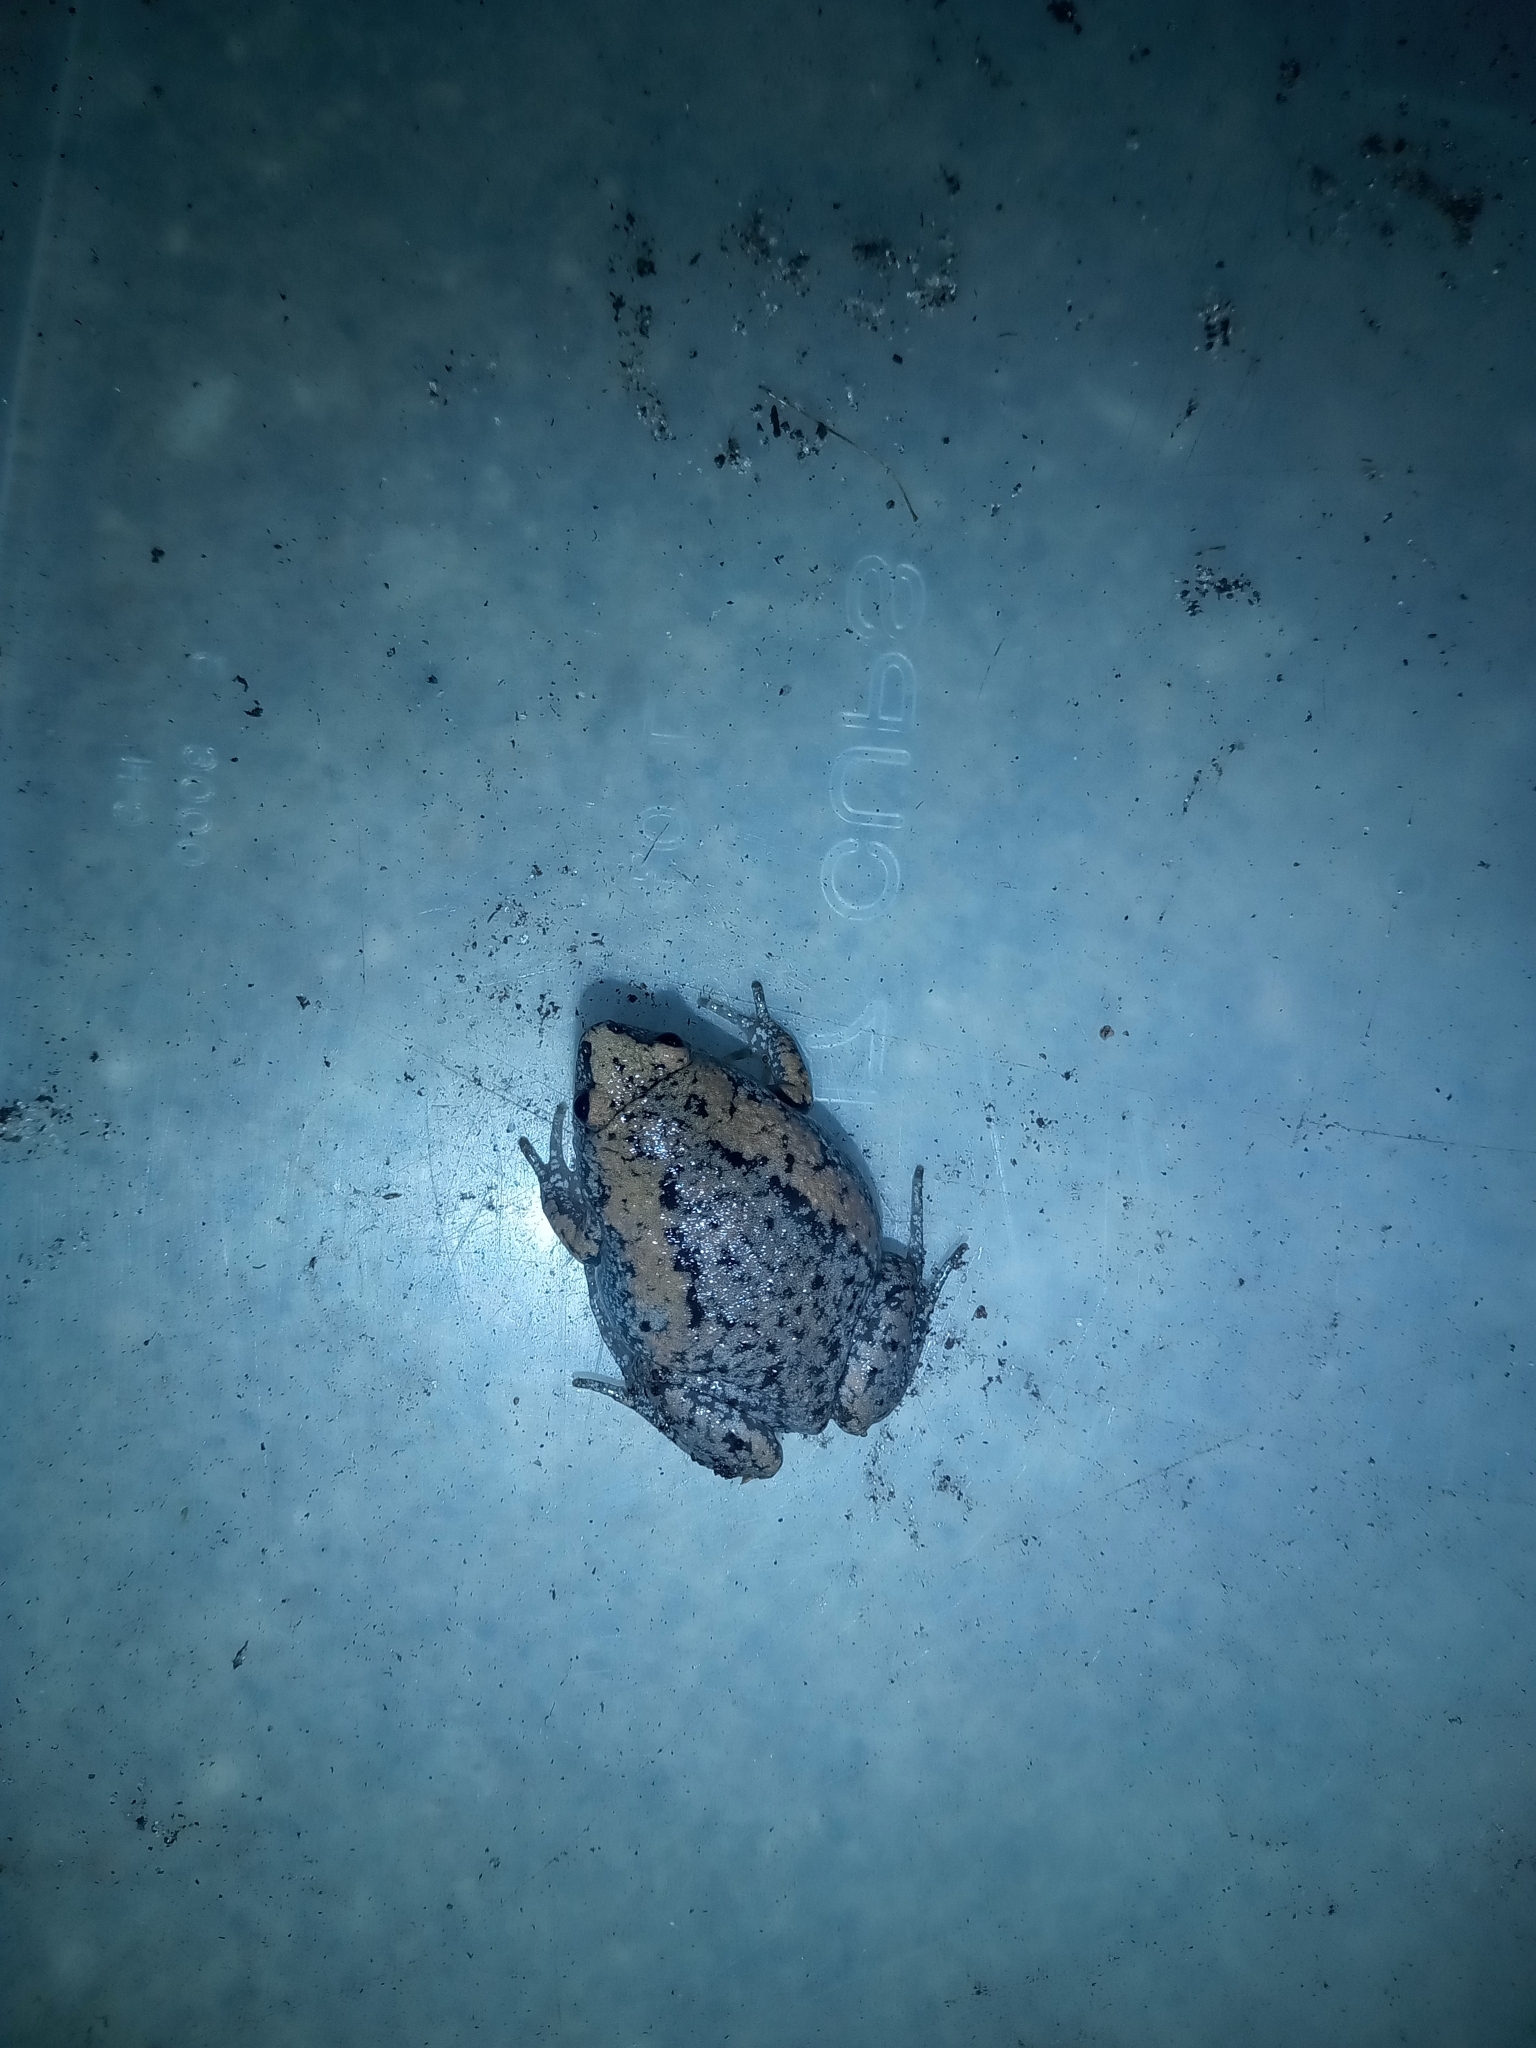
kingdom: Animalia
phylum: Chordata
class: Amphibia
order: Anura
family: Microhylidae
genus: Gastrophryne
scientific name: Gastrophryne carolinensis
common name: Eastern narrowmouth toad
